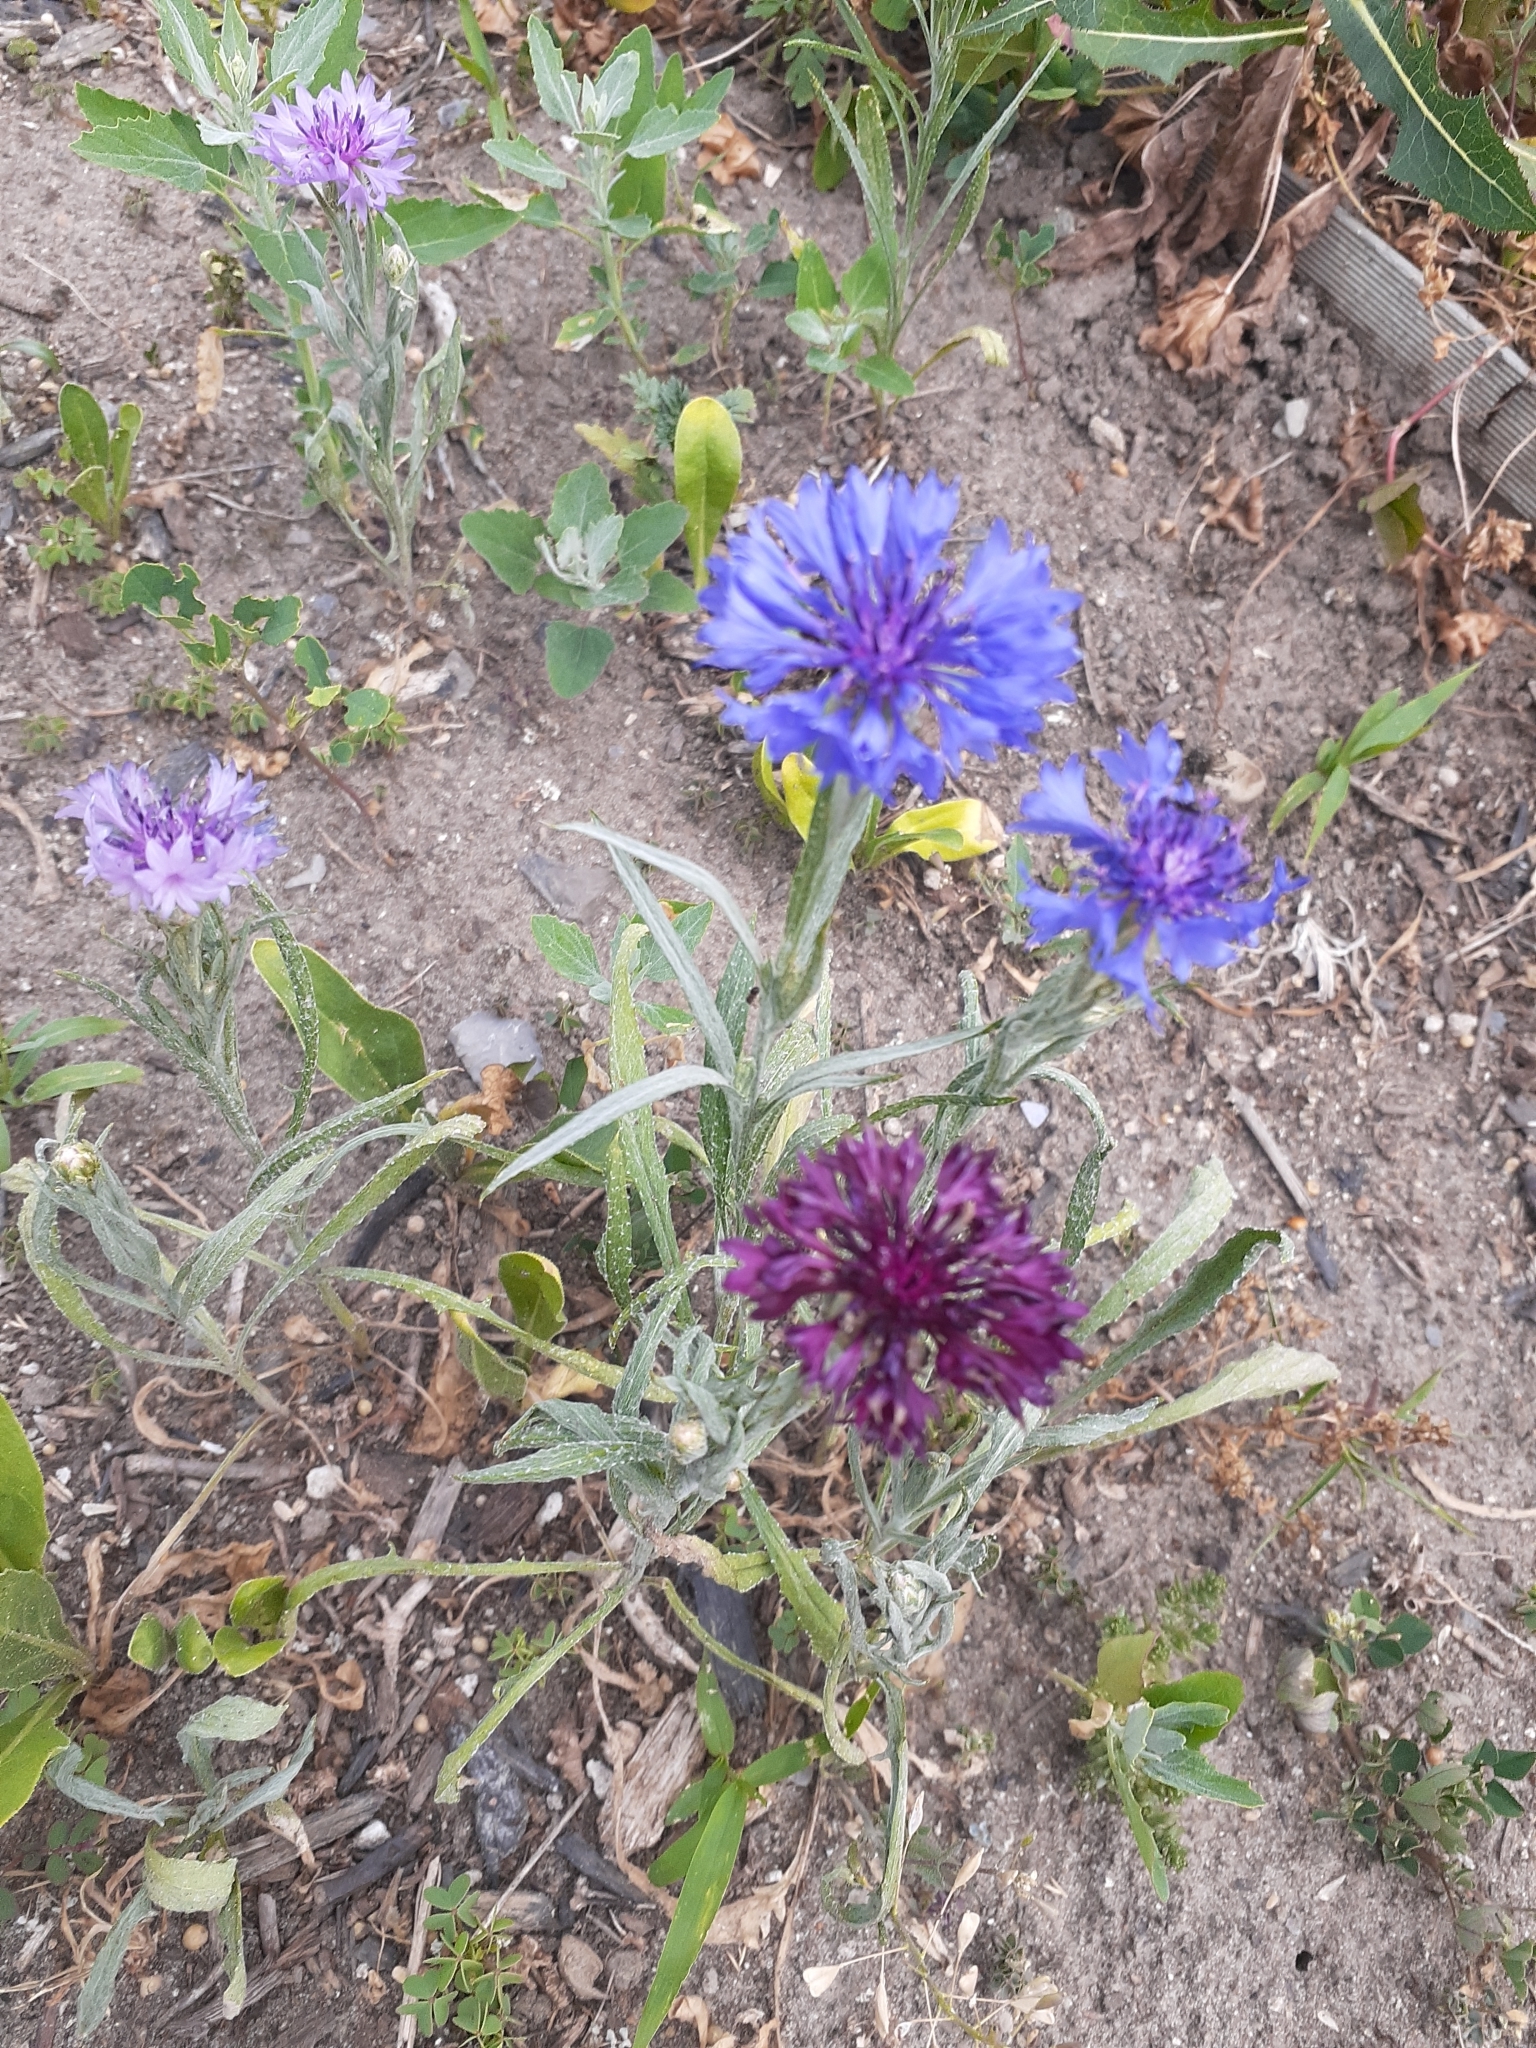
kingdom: Plantae
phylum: Tracheophyta
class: Magnoliopsida
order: Asterales
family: Asteraceae
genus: Centaurea
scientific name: Centaurea cyanus
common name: Cornflower
